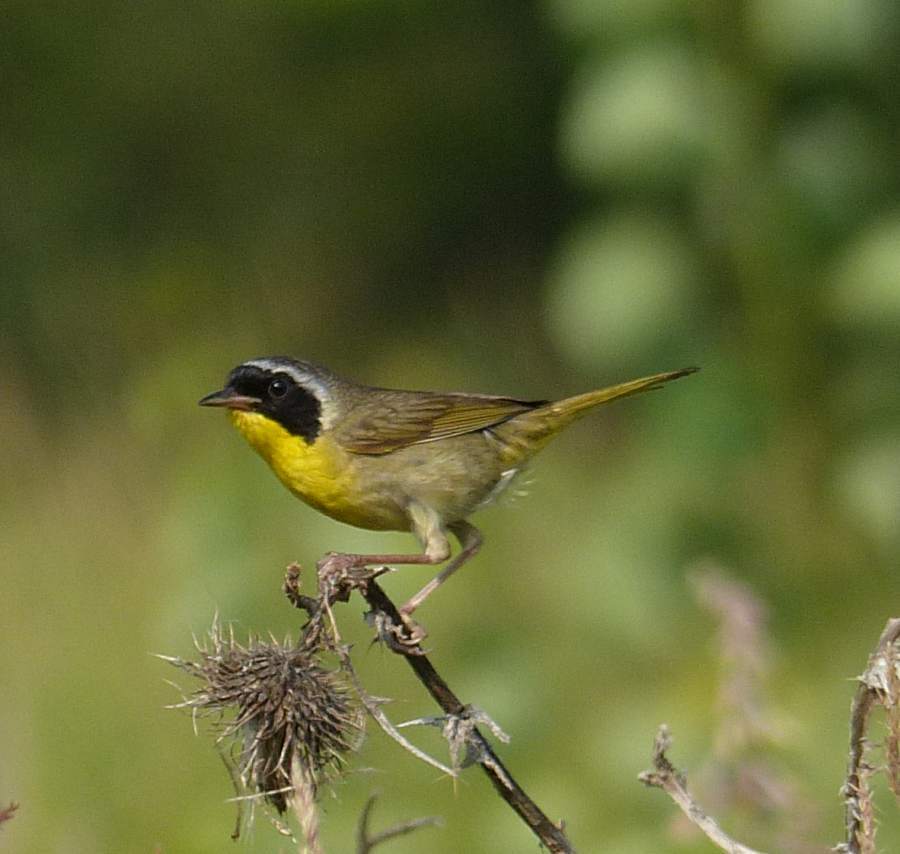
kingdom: Animalia
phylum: Chordata
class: Aves
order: Passeriformes
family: Parulidae
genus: Geothlypis
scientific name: Geothlypis trichas
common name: Common yellowthroat
